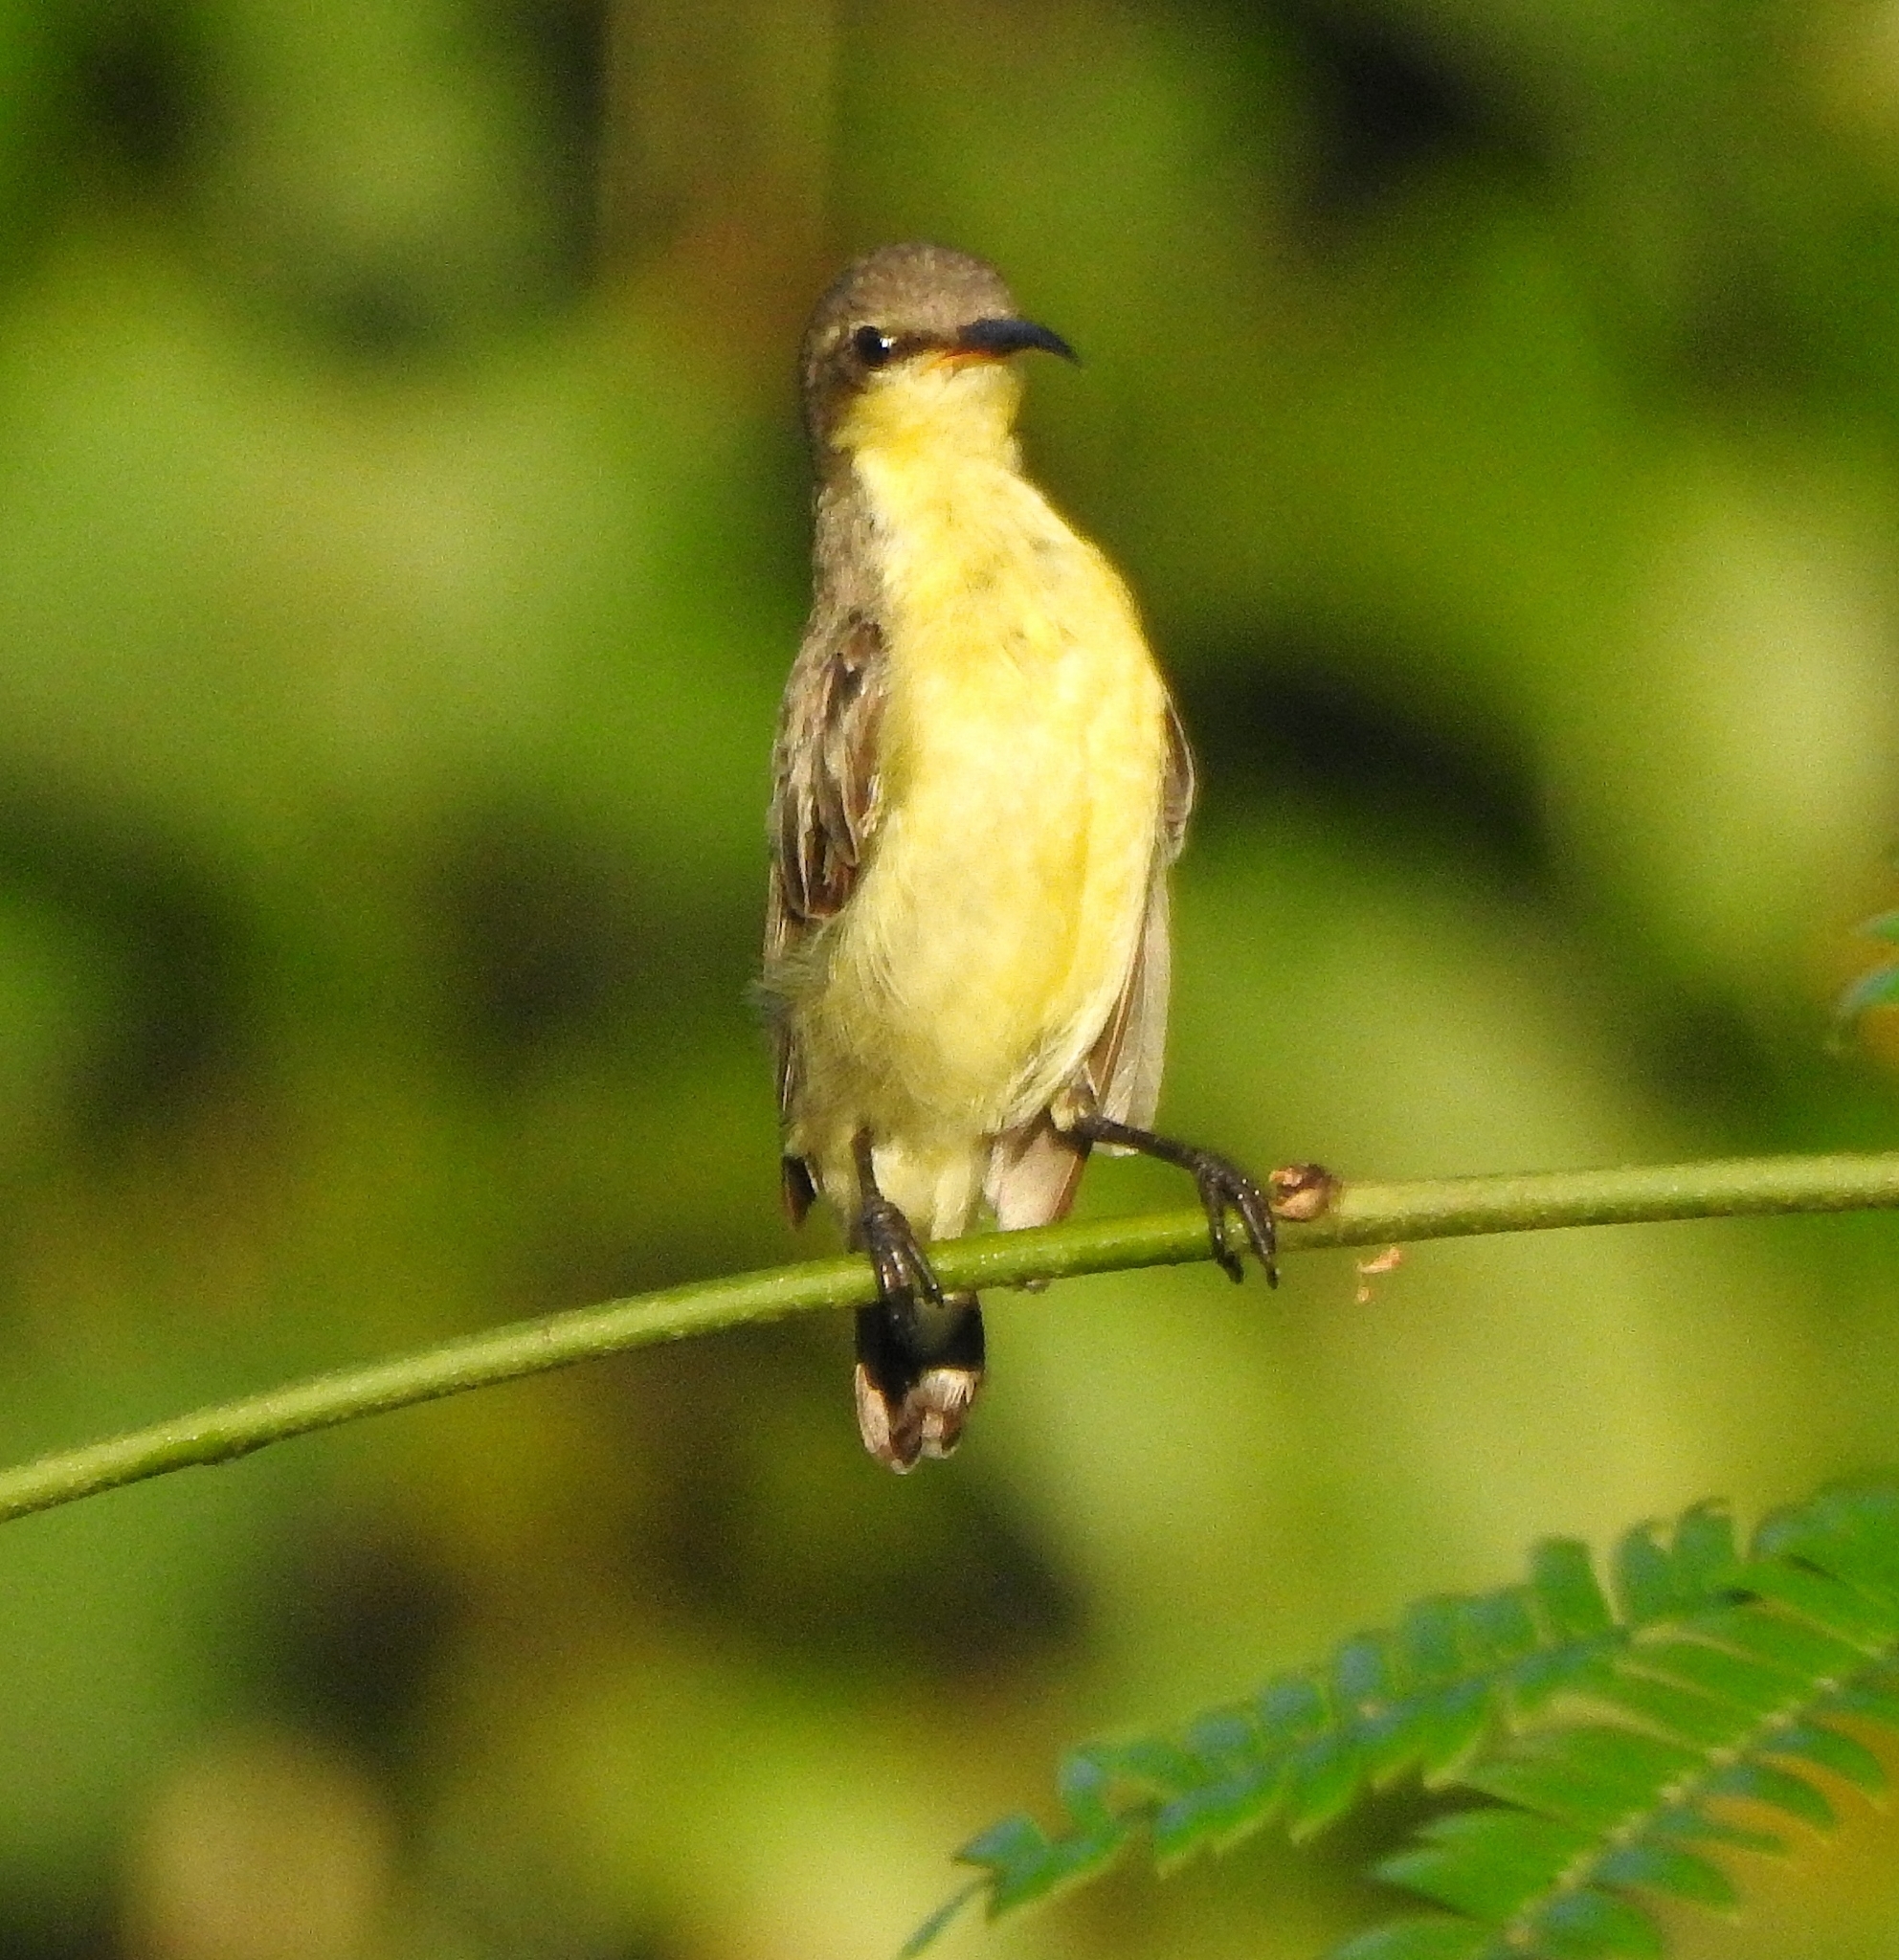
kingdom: Animalia
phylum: Chordata
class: Aves
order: Passeriformes
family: Nectariniidae
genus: Cinnyris
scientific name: Cinnyris asiaticus
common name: Purple sunbird
